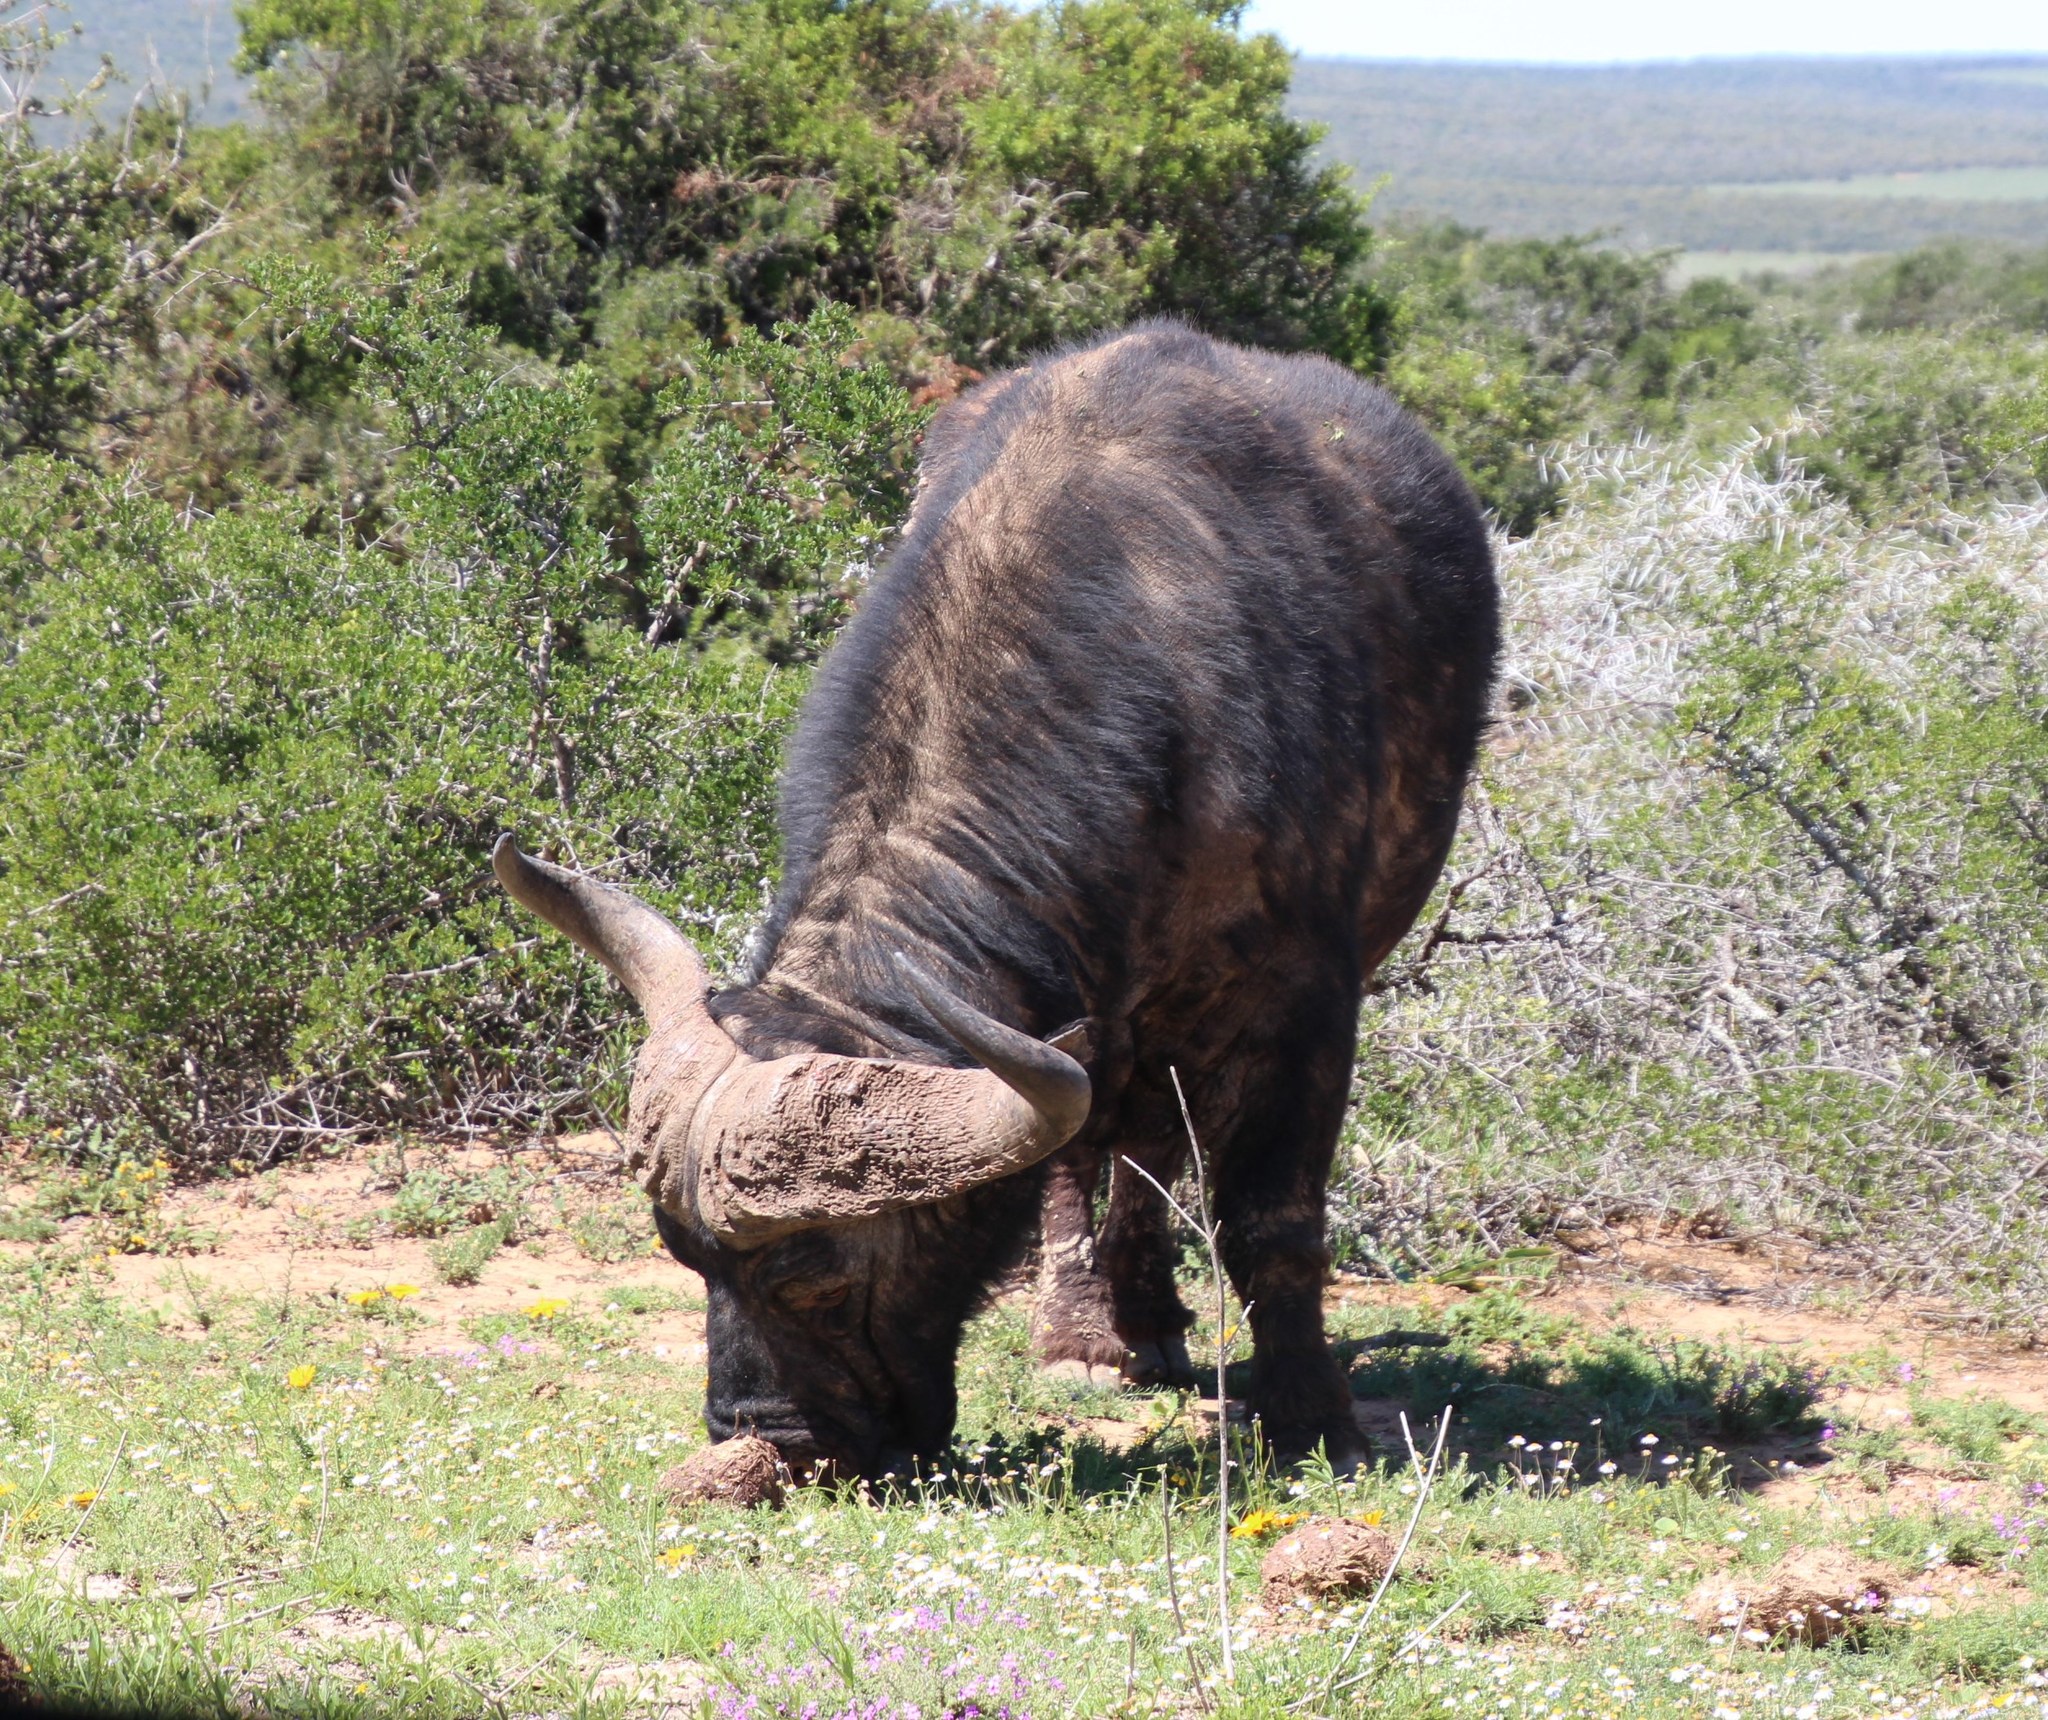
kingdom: Animalia
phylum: Chordata
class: Mammalia
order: Artiodactyla
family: Bovidae
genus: Syncerus
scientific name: Syncerus caffer
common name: African buffalo
